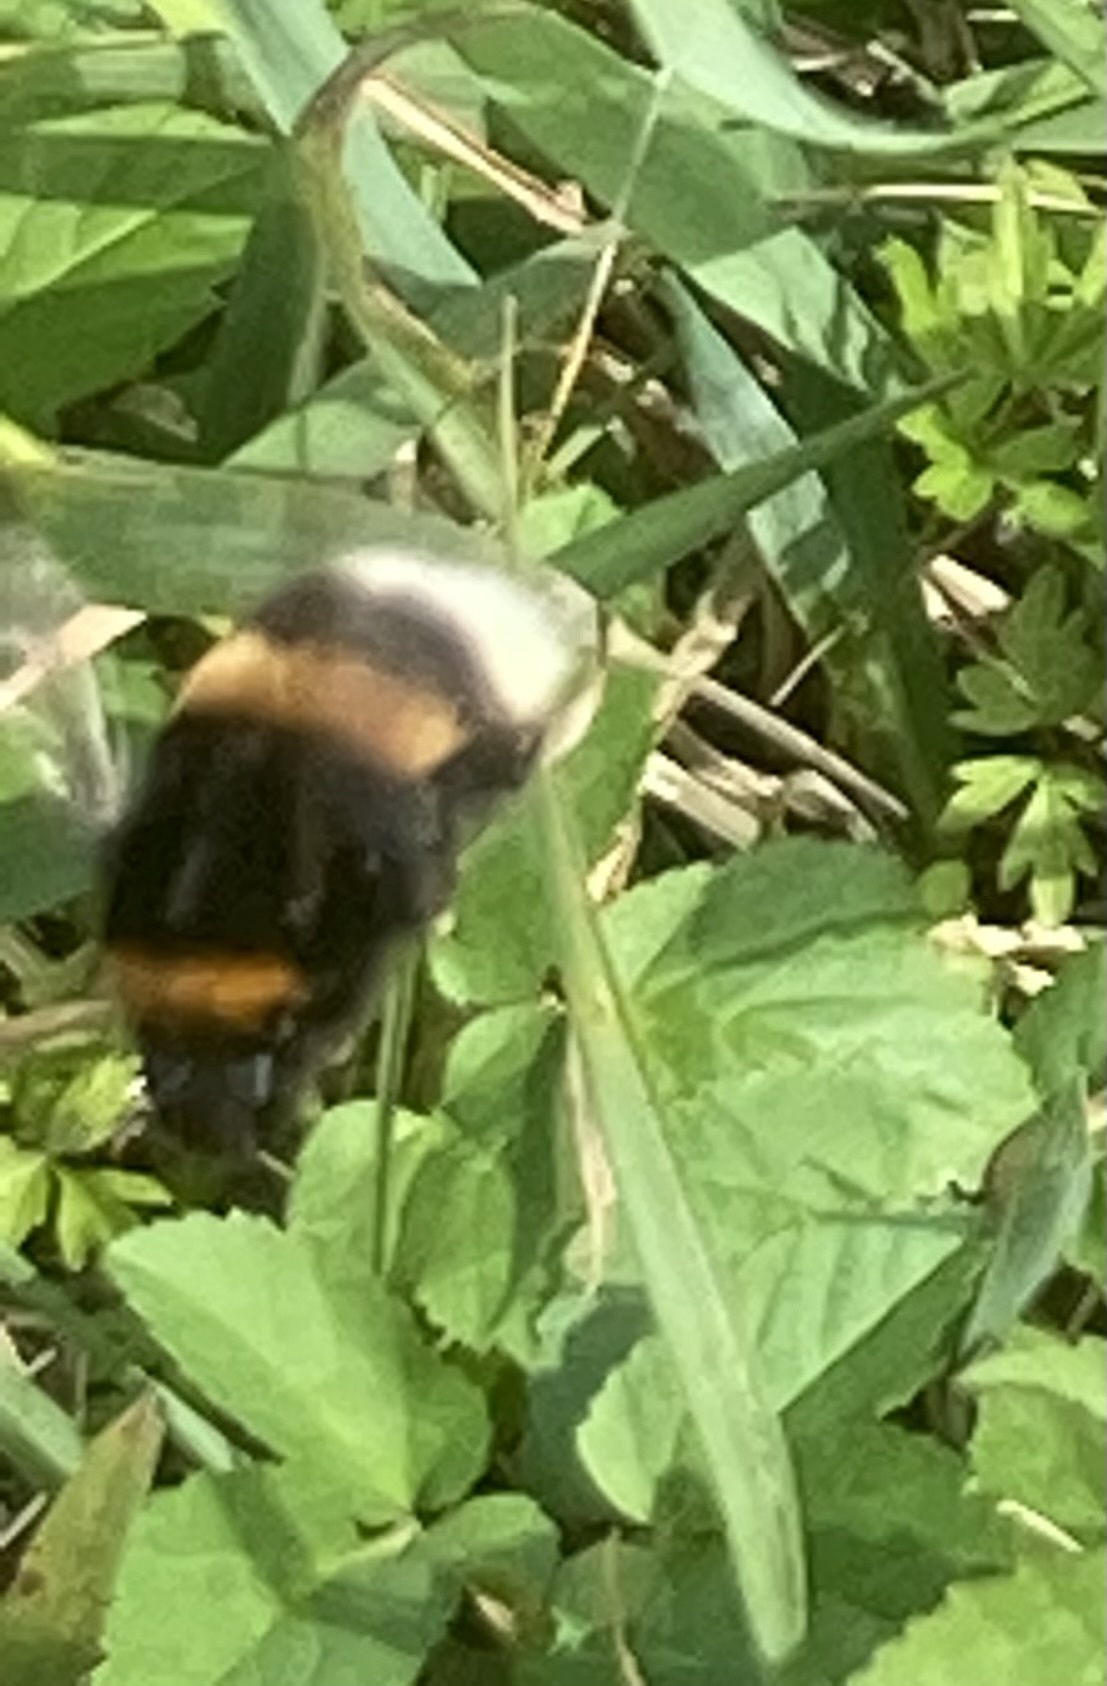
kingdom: Animalia
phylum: Arthropoda
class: Insecta
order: Hymenoptera
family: Apidae
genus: Bombus
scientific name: Bombus terrestris
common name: Buff-tailed bumblebee
